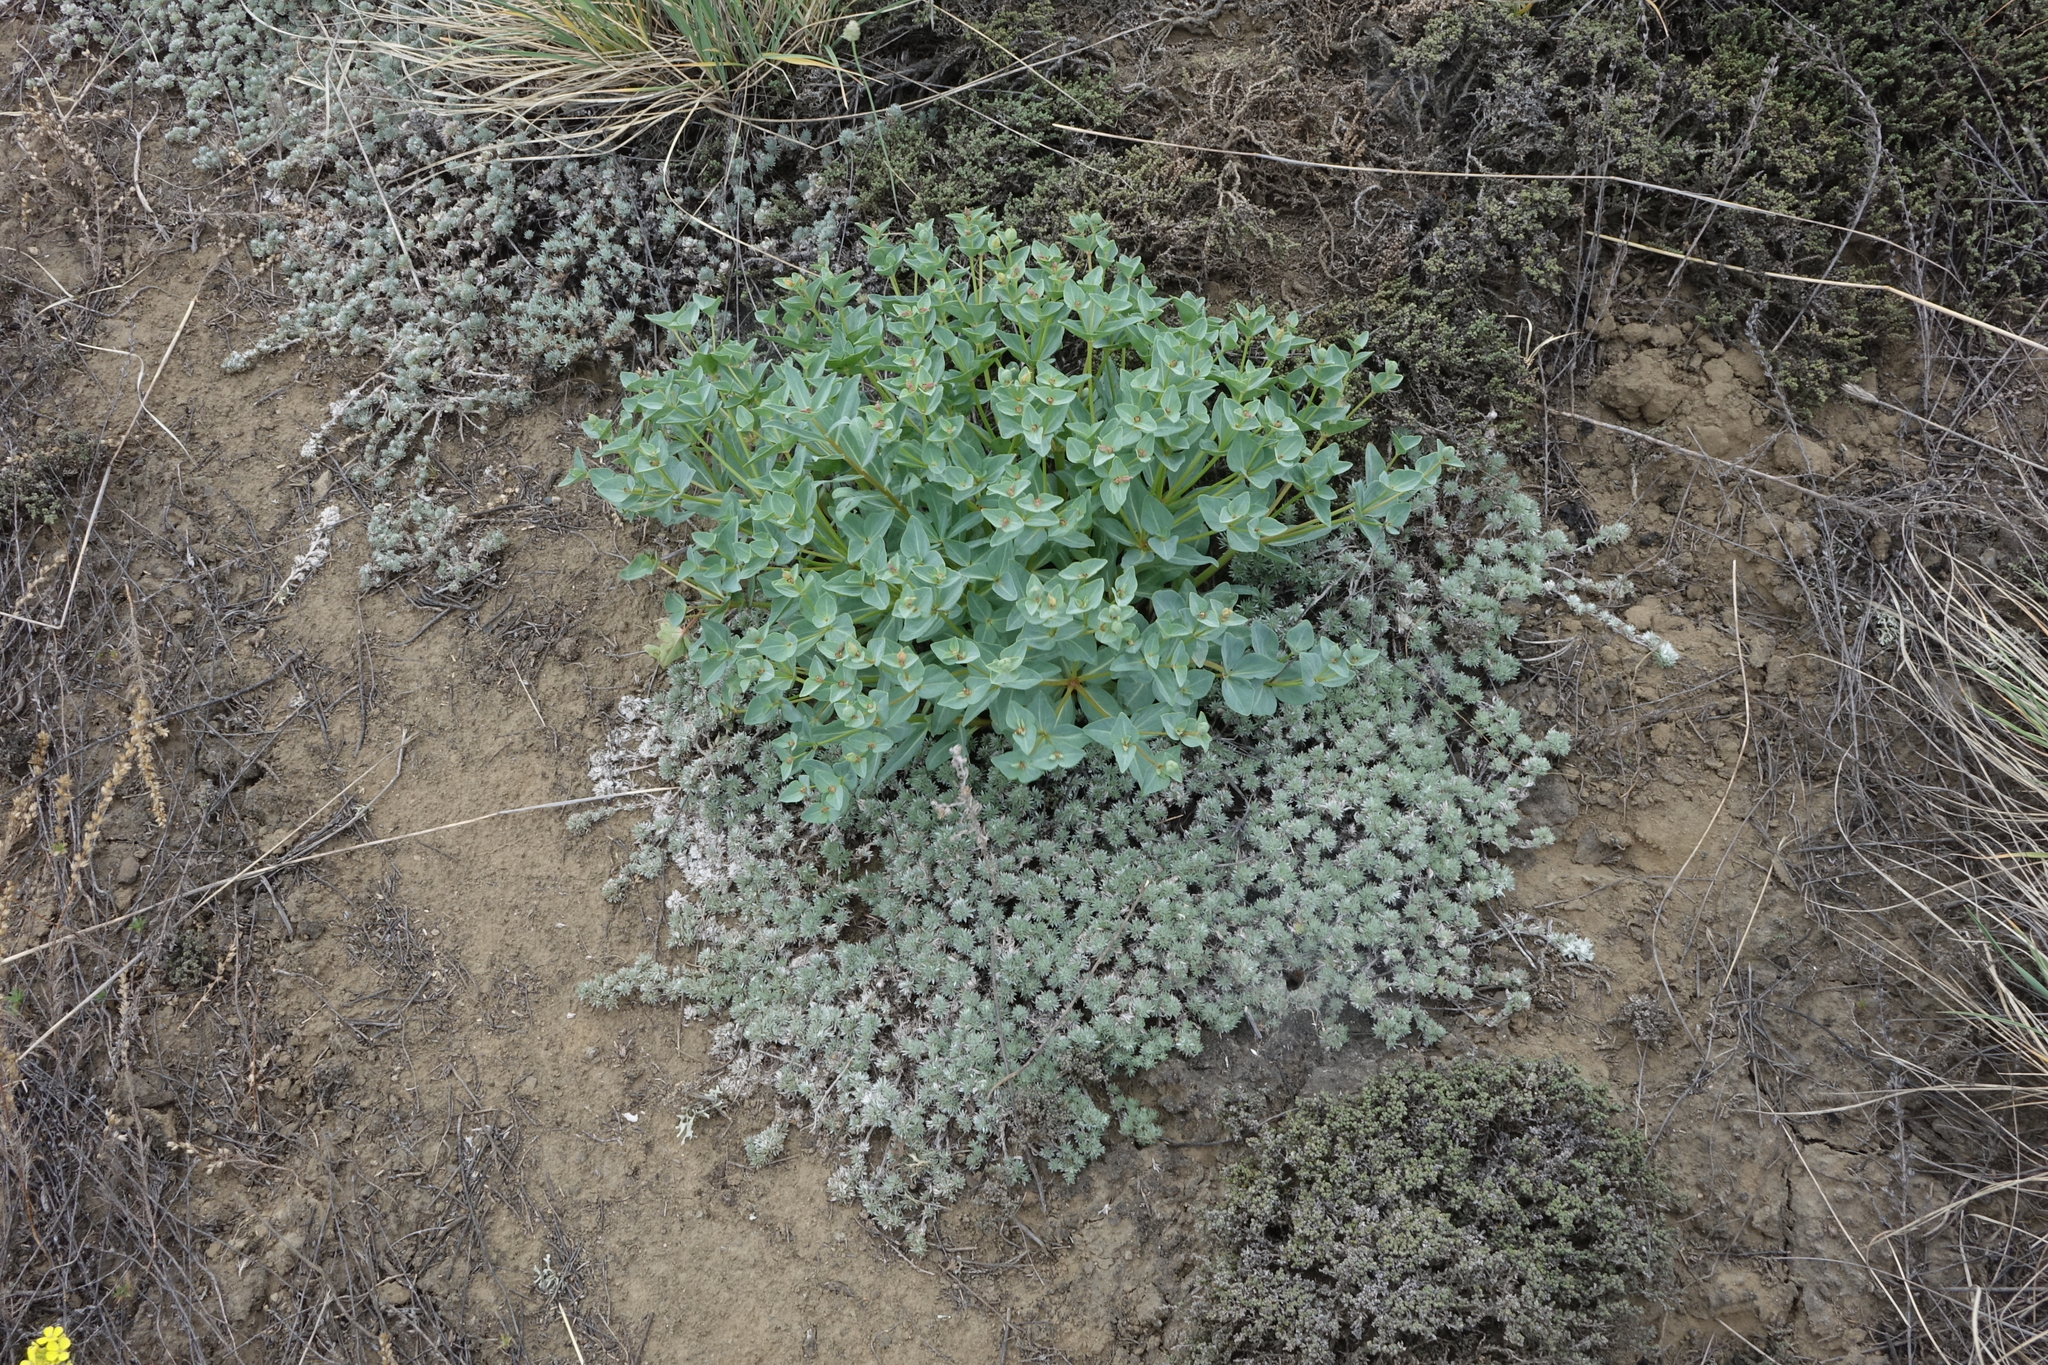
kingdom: Plantae
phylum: Tracheophyta
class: Magnoliopsida
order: Malpighiales
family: Euphorbiaceae
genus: Euphorbia
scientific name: Euphorbia mongolica
